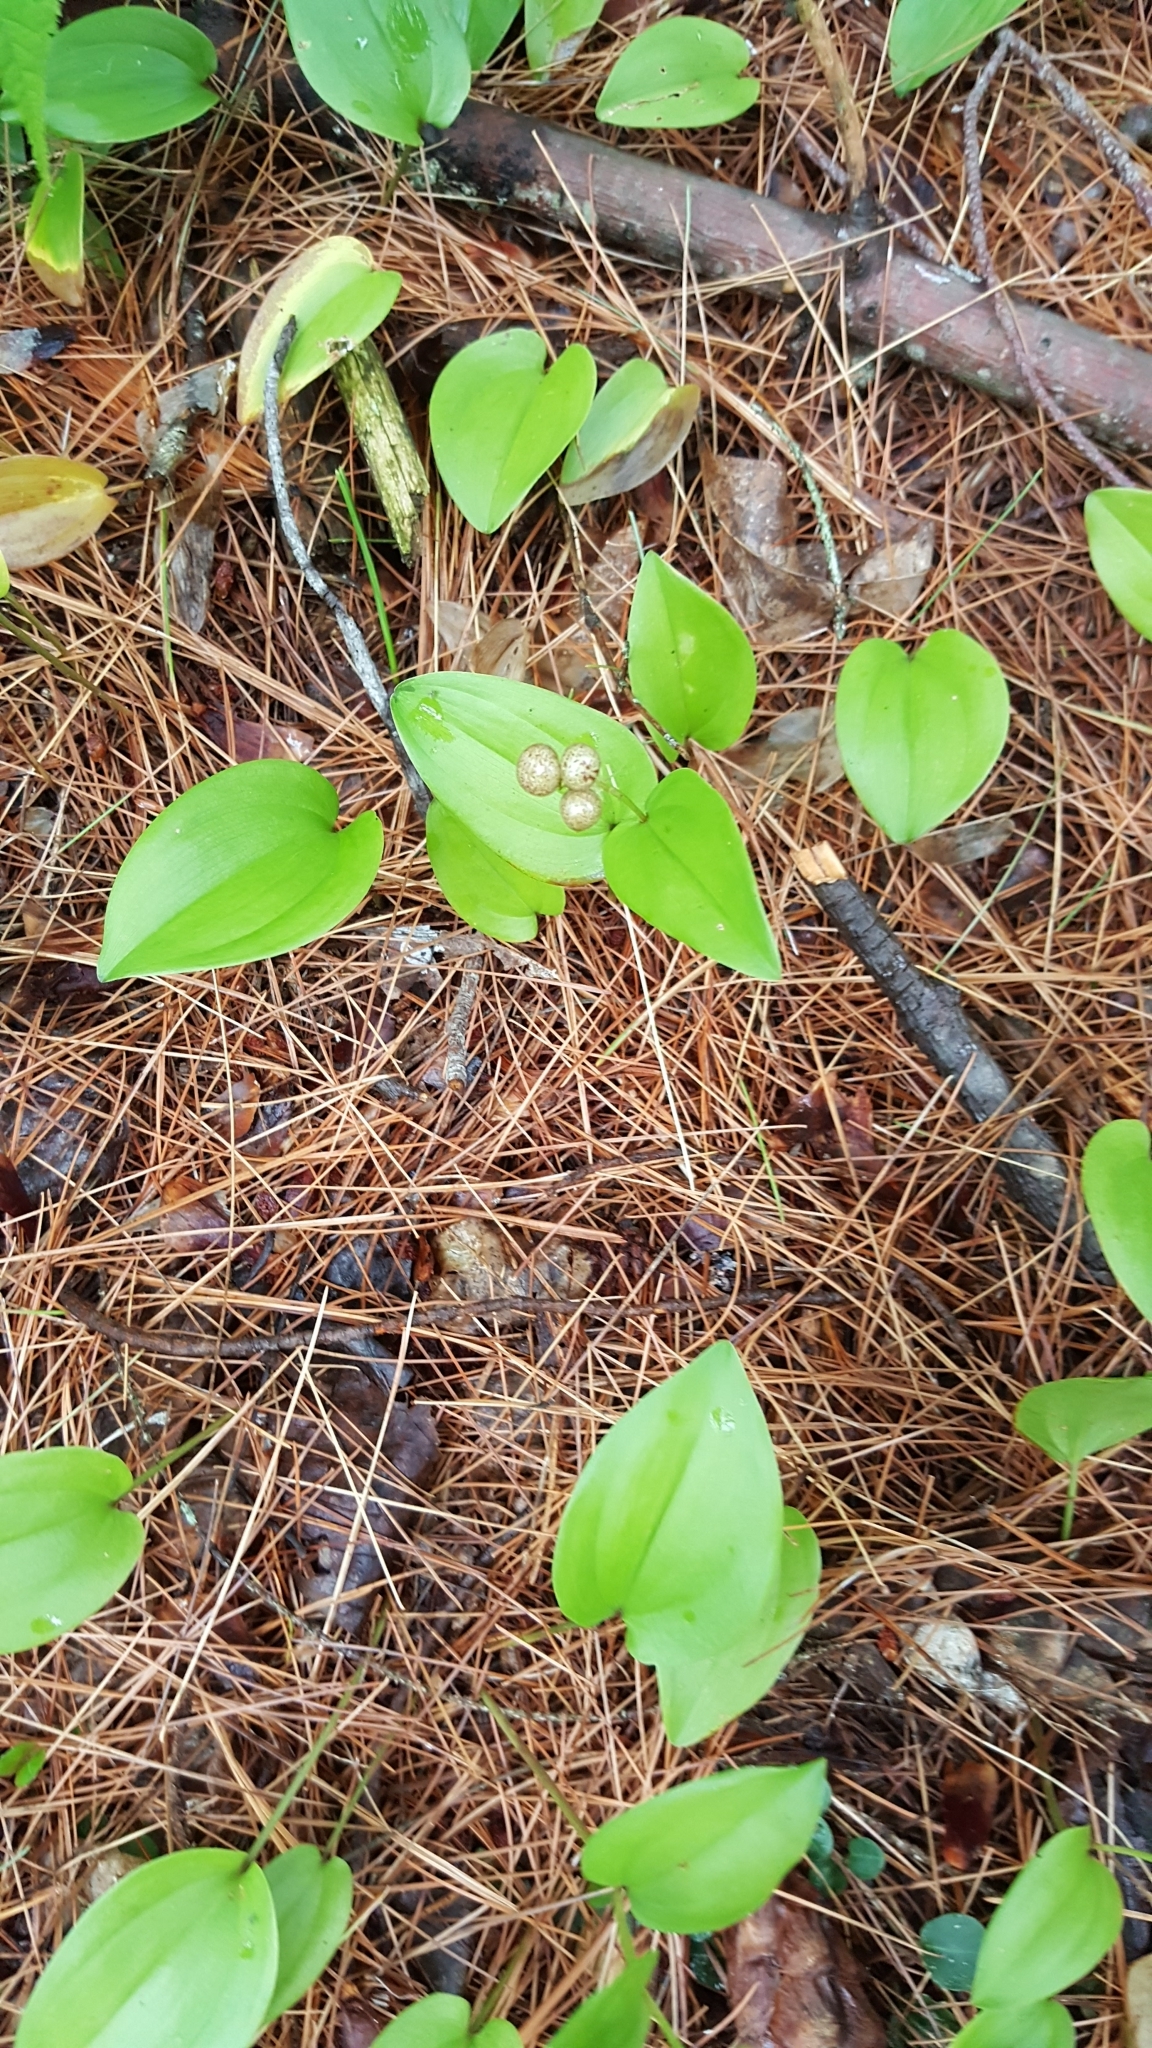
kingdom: Plantae
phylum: Tracheophyta
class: Liliopsida
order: Asparagales
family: Asparagaceae
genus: Maianthemum
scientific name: Maianthemum canadense
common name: False lily-of-the-valley
